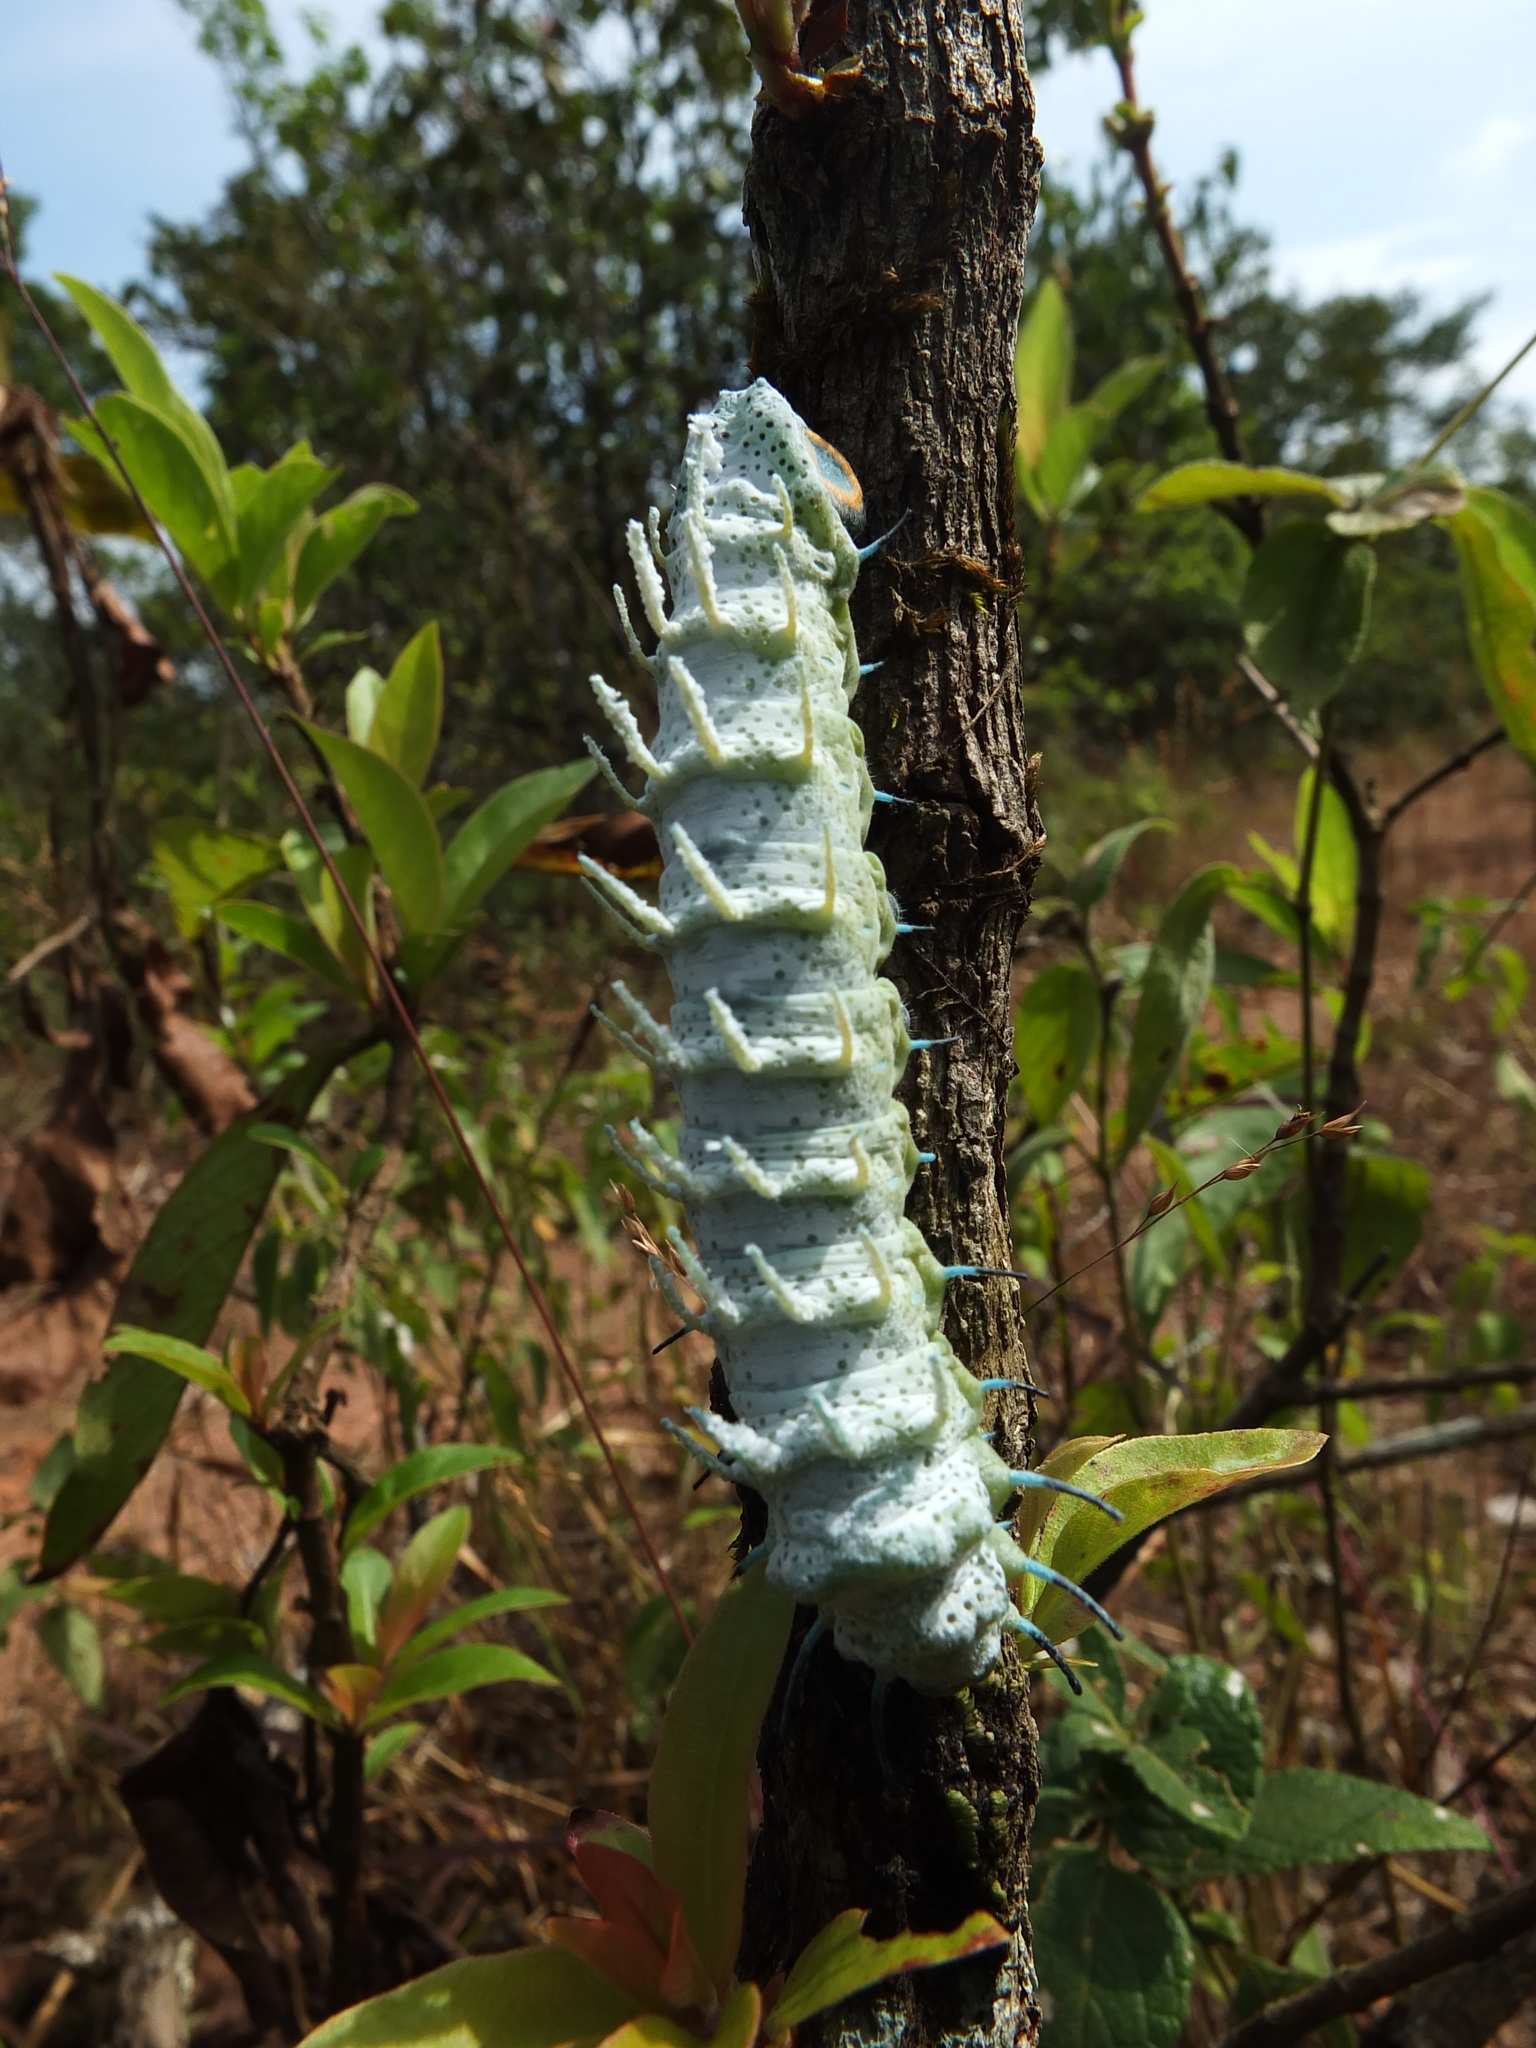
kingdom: Animalia
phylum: Arthropoda
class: Insecta
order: Lepidoptera
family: Saturniidae
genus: Attacus
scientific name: Attacus taprobanis
